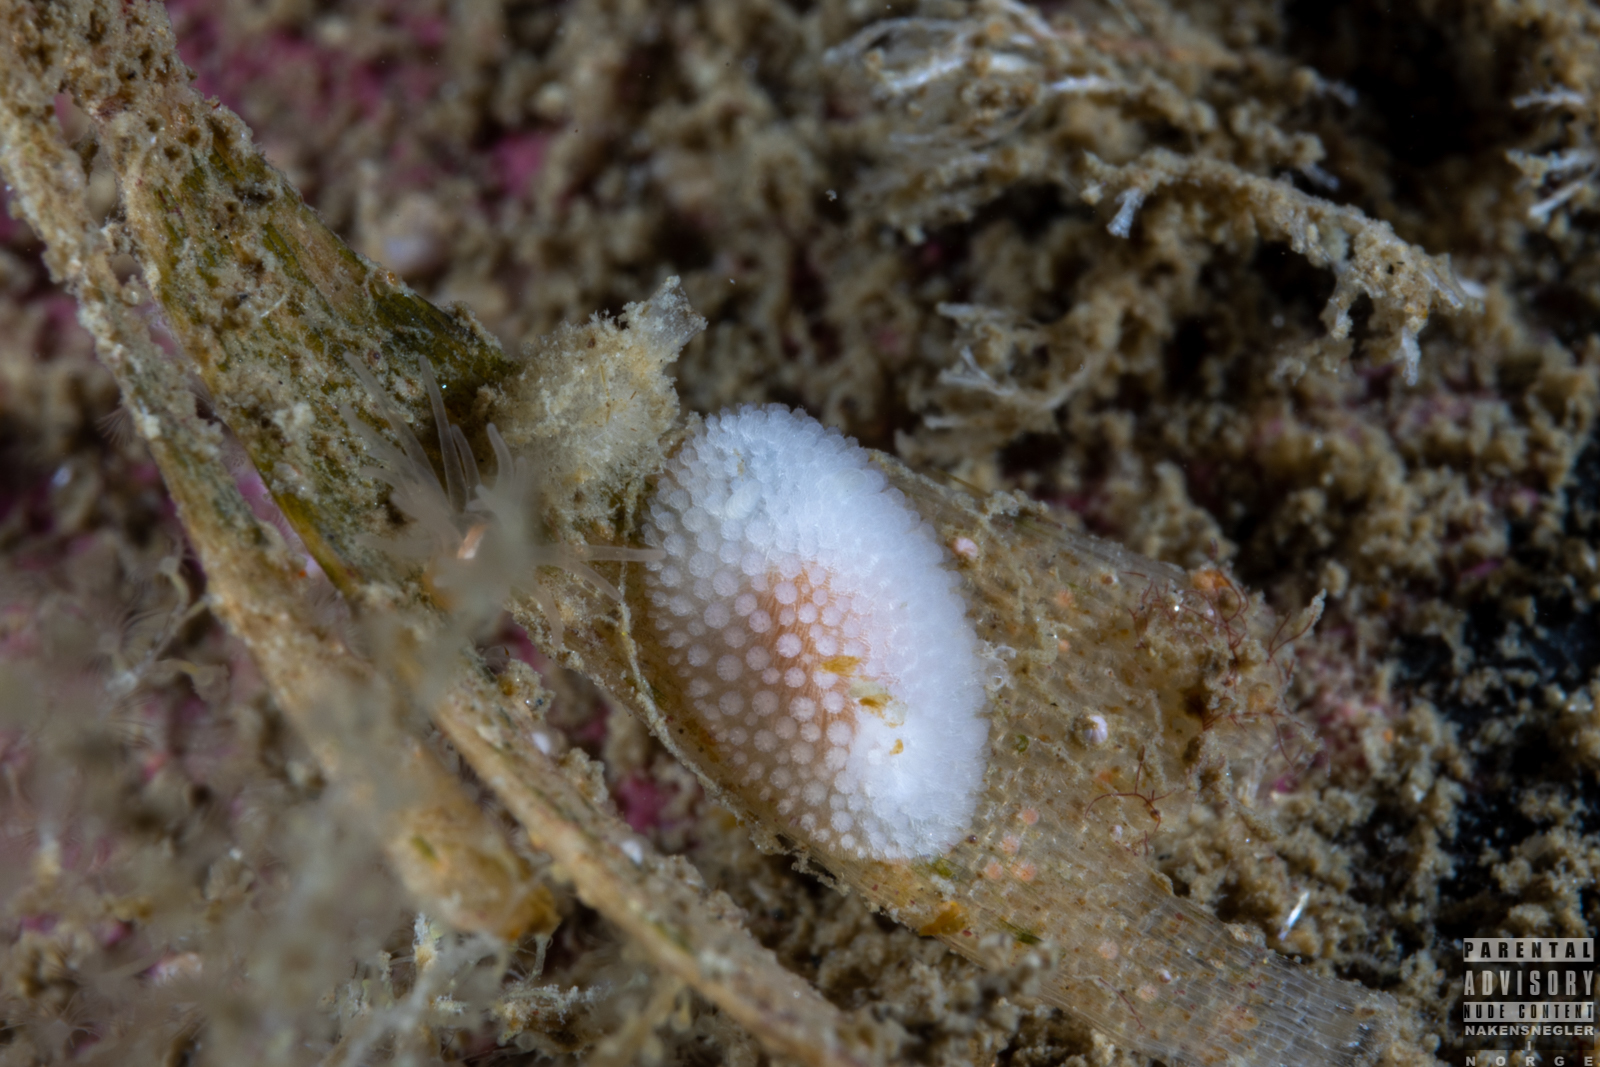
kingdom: Animalia
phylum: Mollusca
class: Gastropoda
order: Nudibranchia
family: Onchidorididae
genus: Onchidoris
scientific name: Onchidoris muricata
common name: Rough doris
